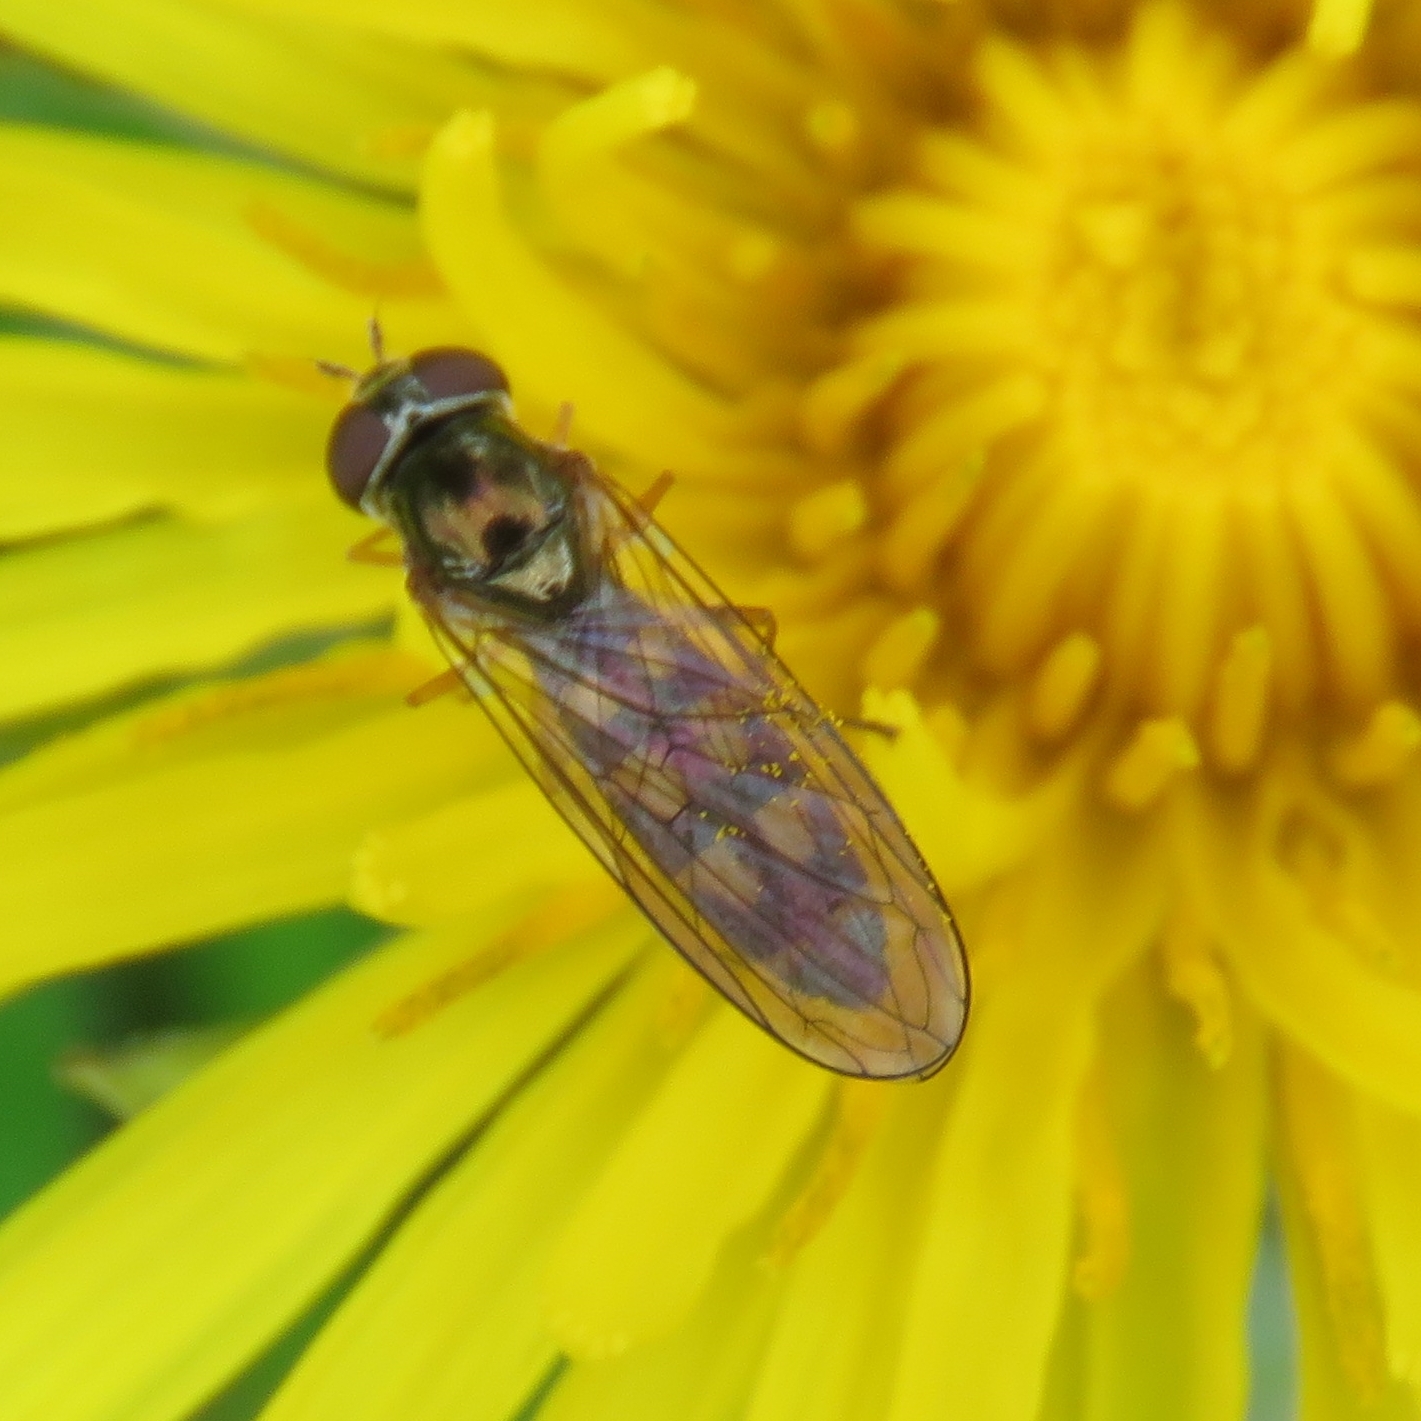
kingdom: Animalia
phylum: Arthropoda
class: Insecta
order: Diptera
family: Syrphidae
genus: Melanostoma
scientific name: Melanostoma scalare
